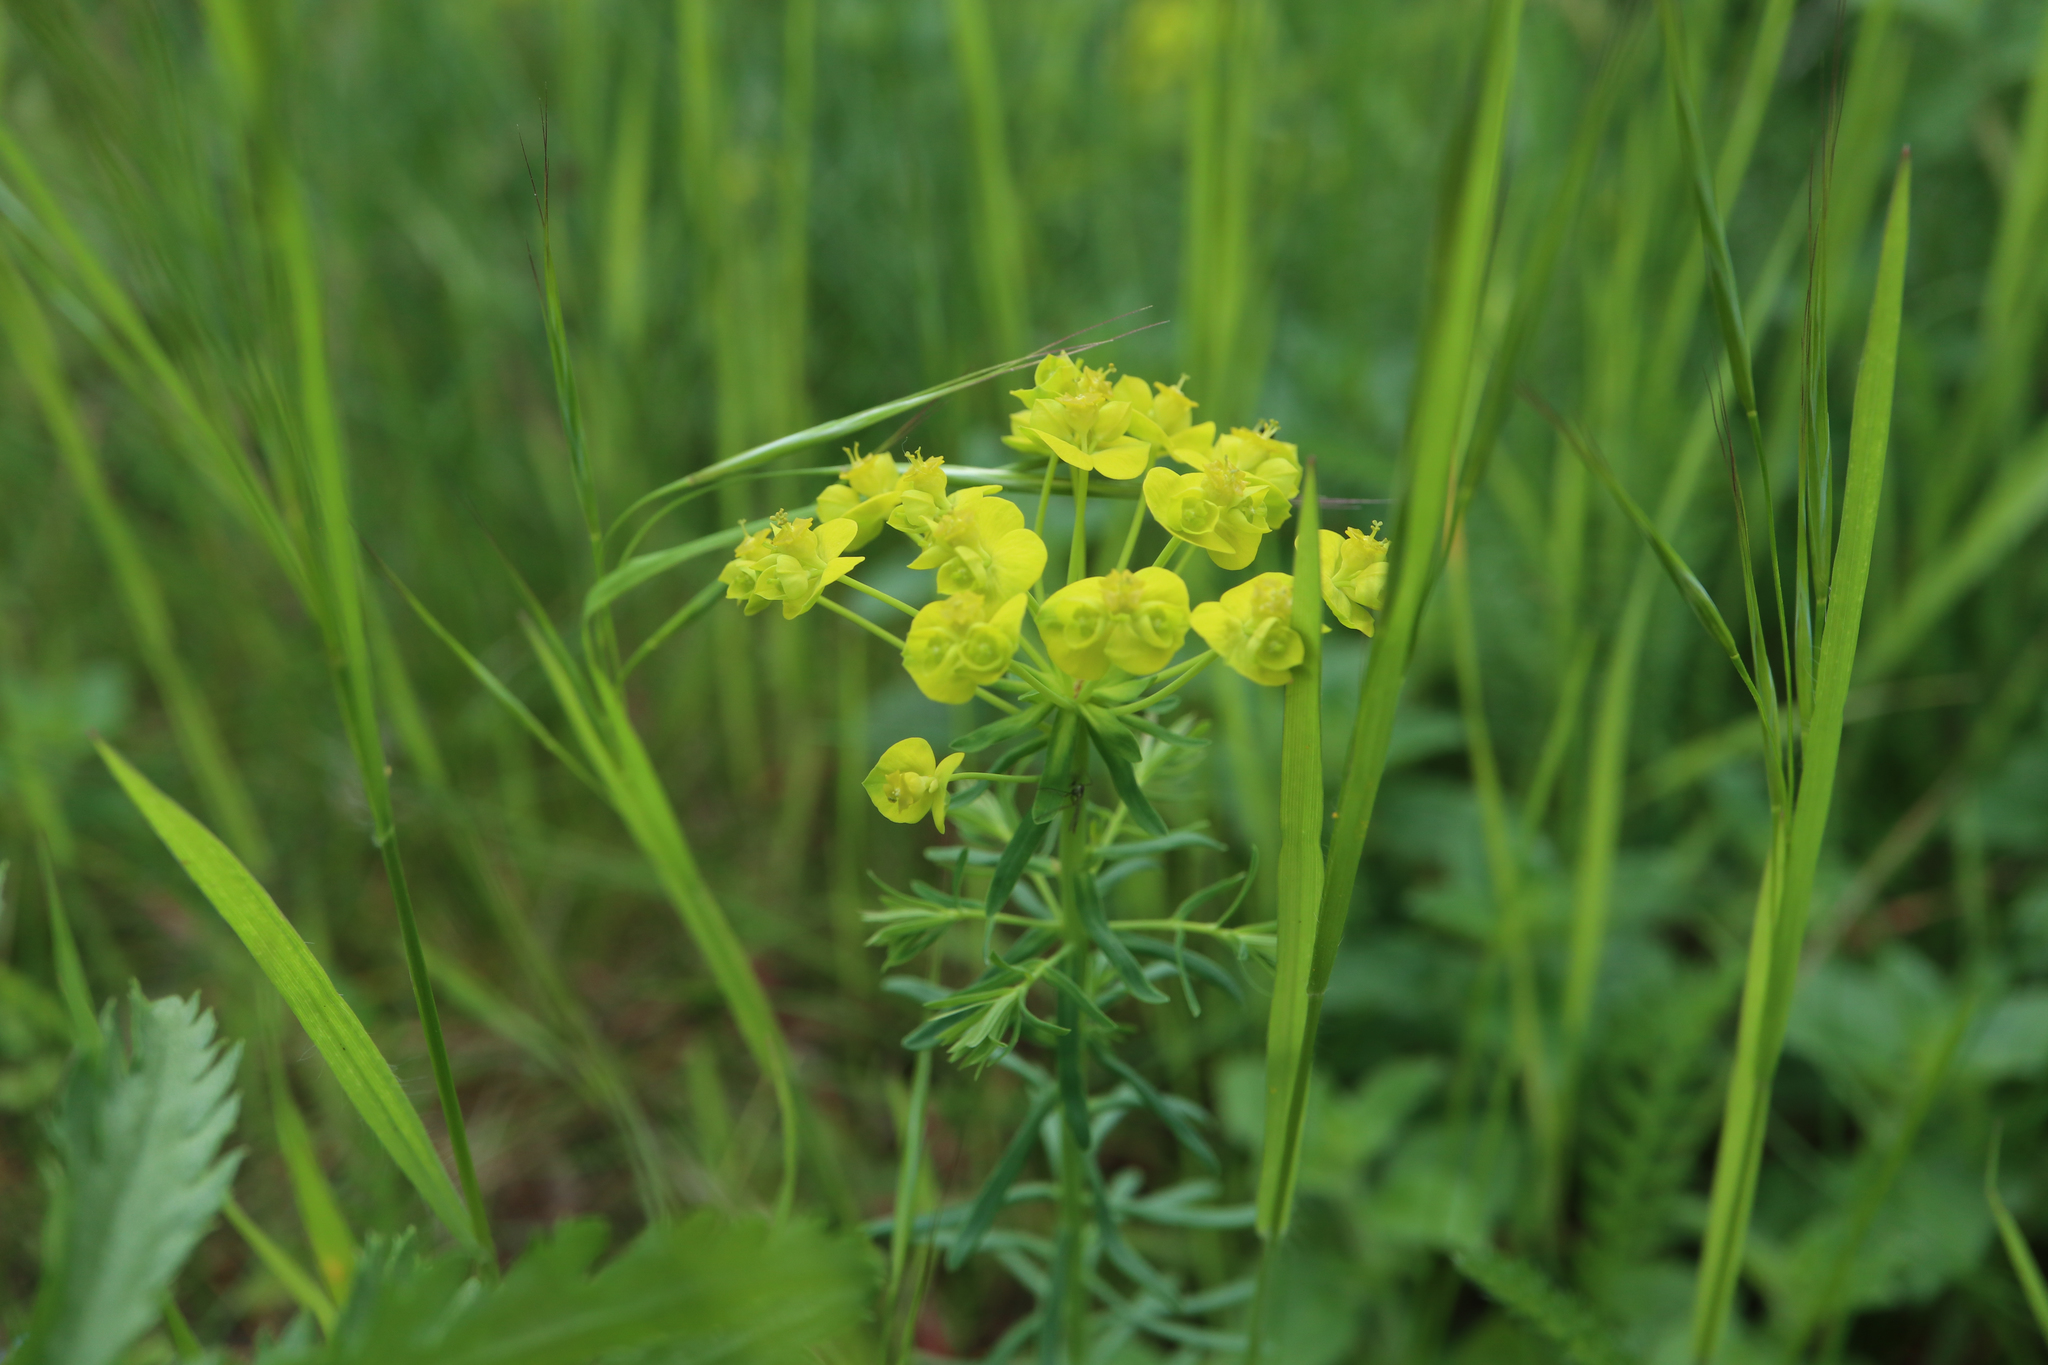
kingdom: Plantae
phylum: Tracheophyta
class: Magnoliopsida
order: Malpighiales
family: Euphorbiaceae
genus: Euphorbia
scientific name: Euphorbia cyparissias
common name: Cypress spurge
